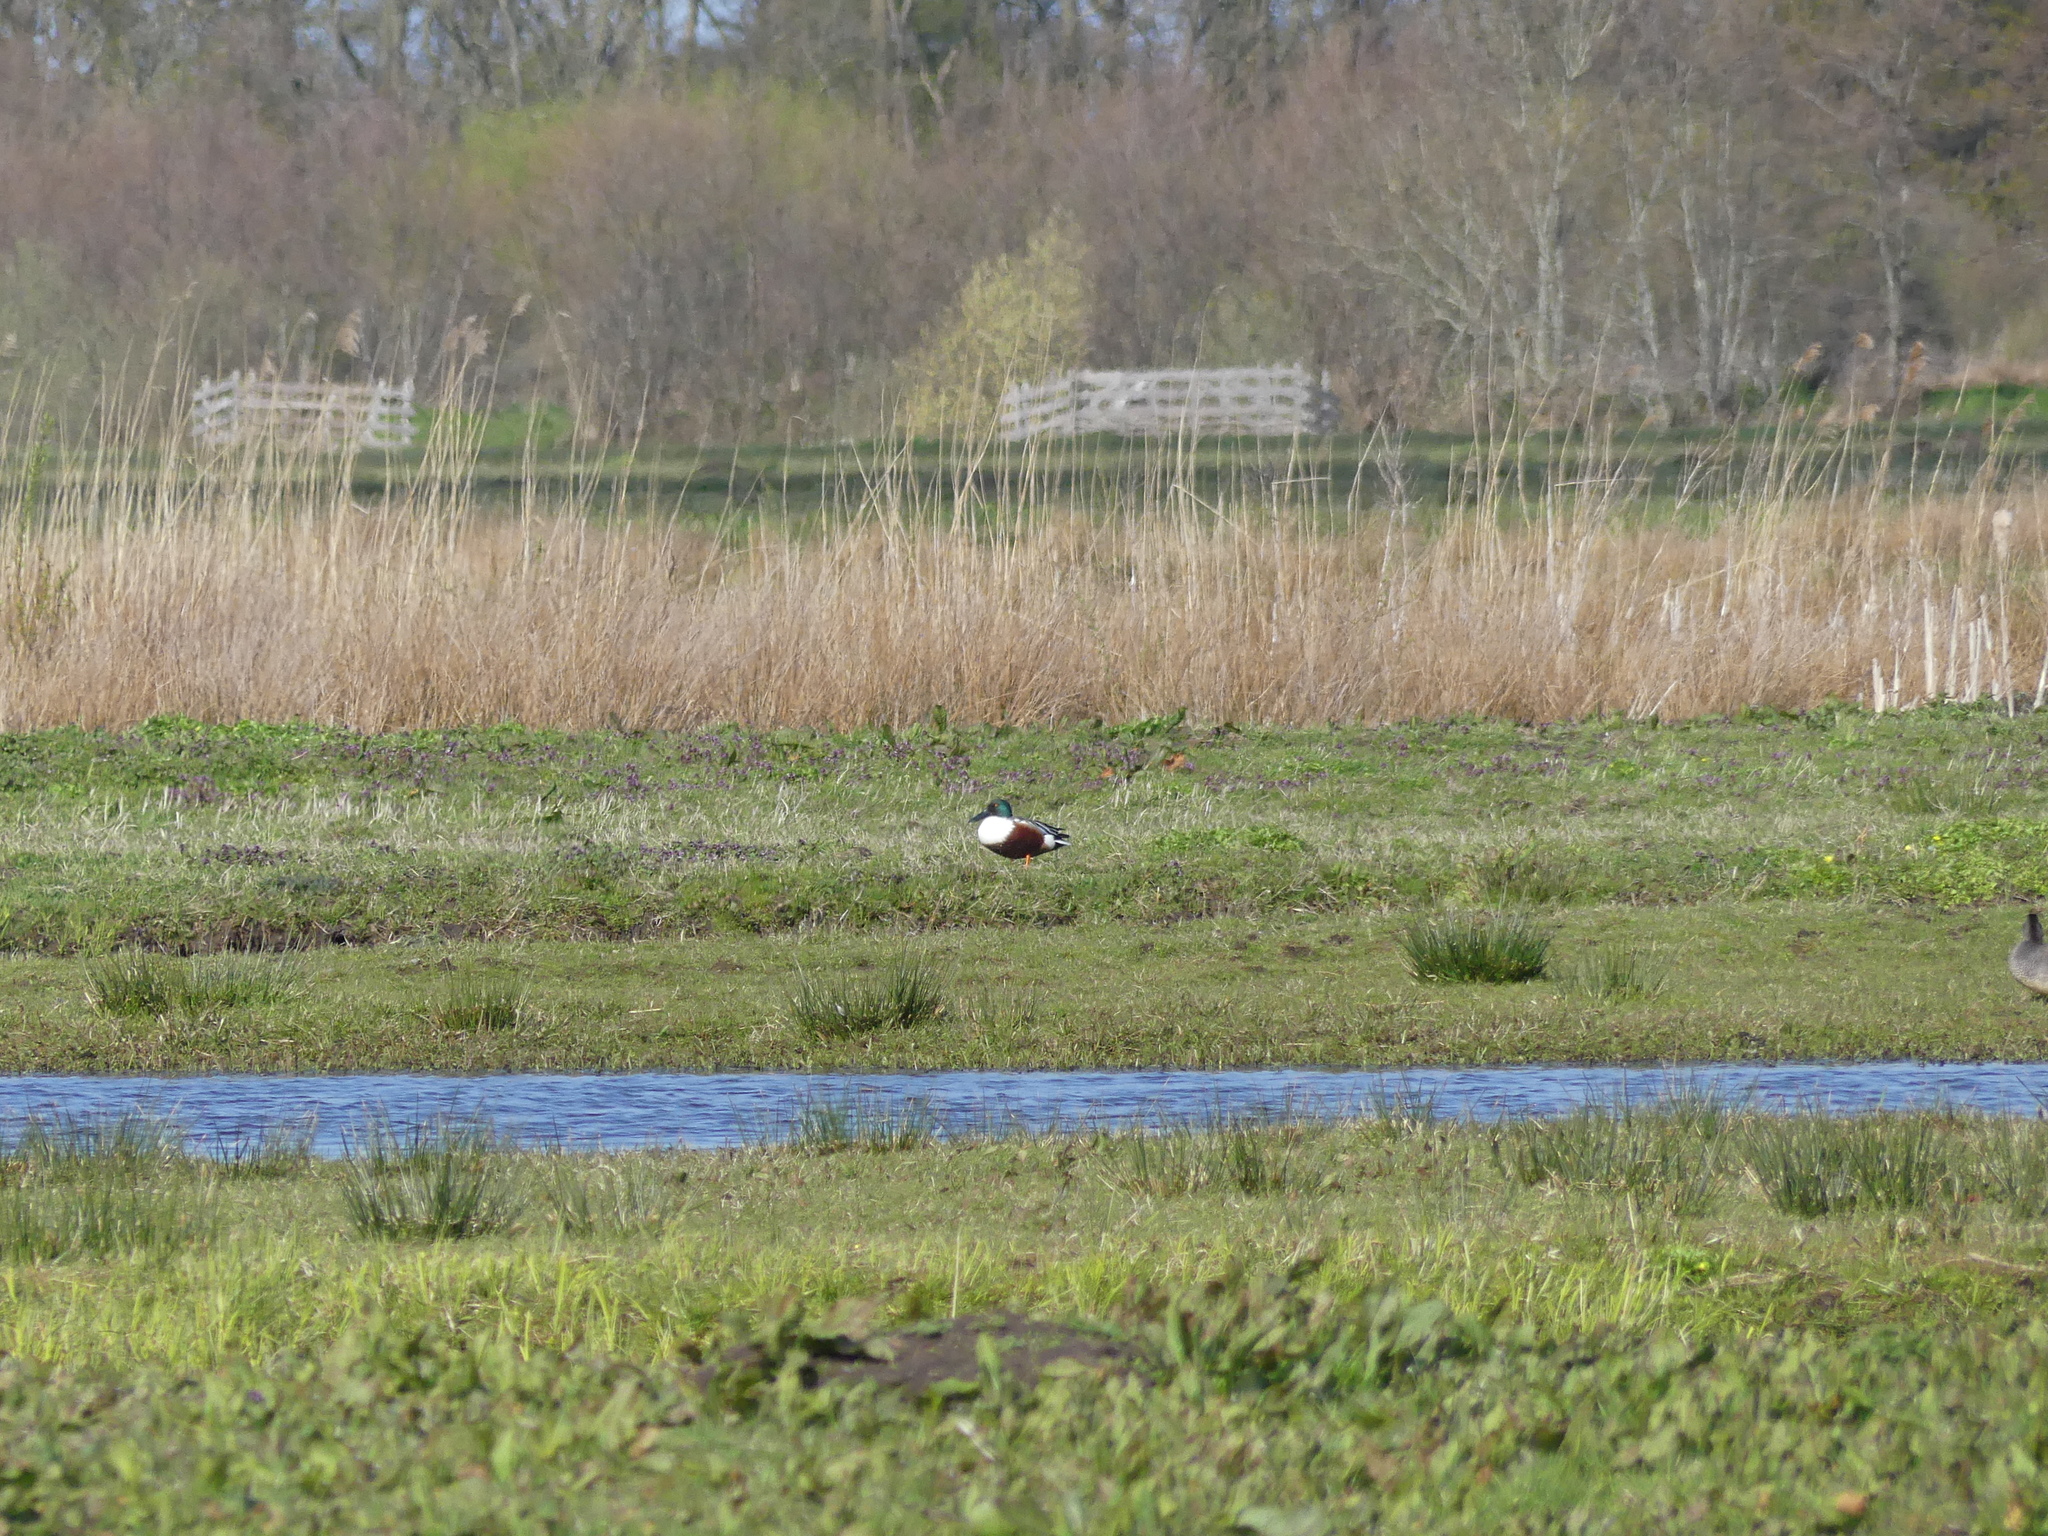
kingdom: Animalia
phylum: Chordata
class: Aves
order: Anseriformes
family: Anatidae
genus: Spatula
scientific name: Spatula clypeata
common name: Northern shoveler
